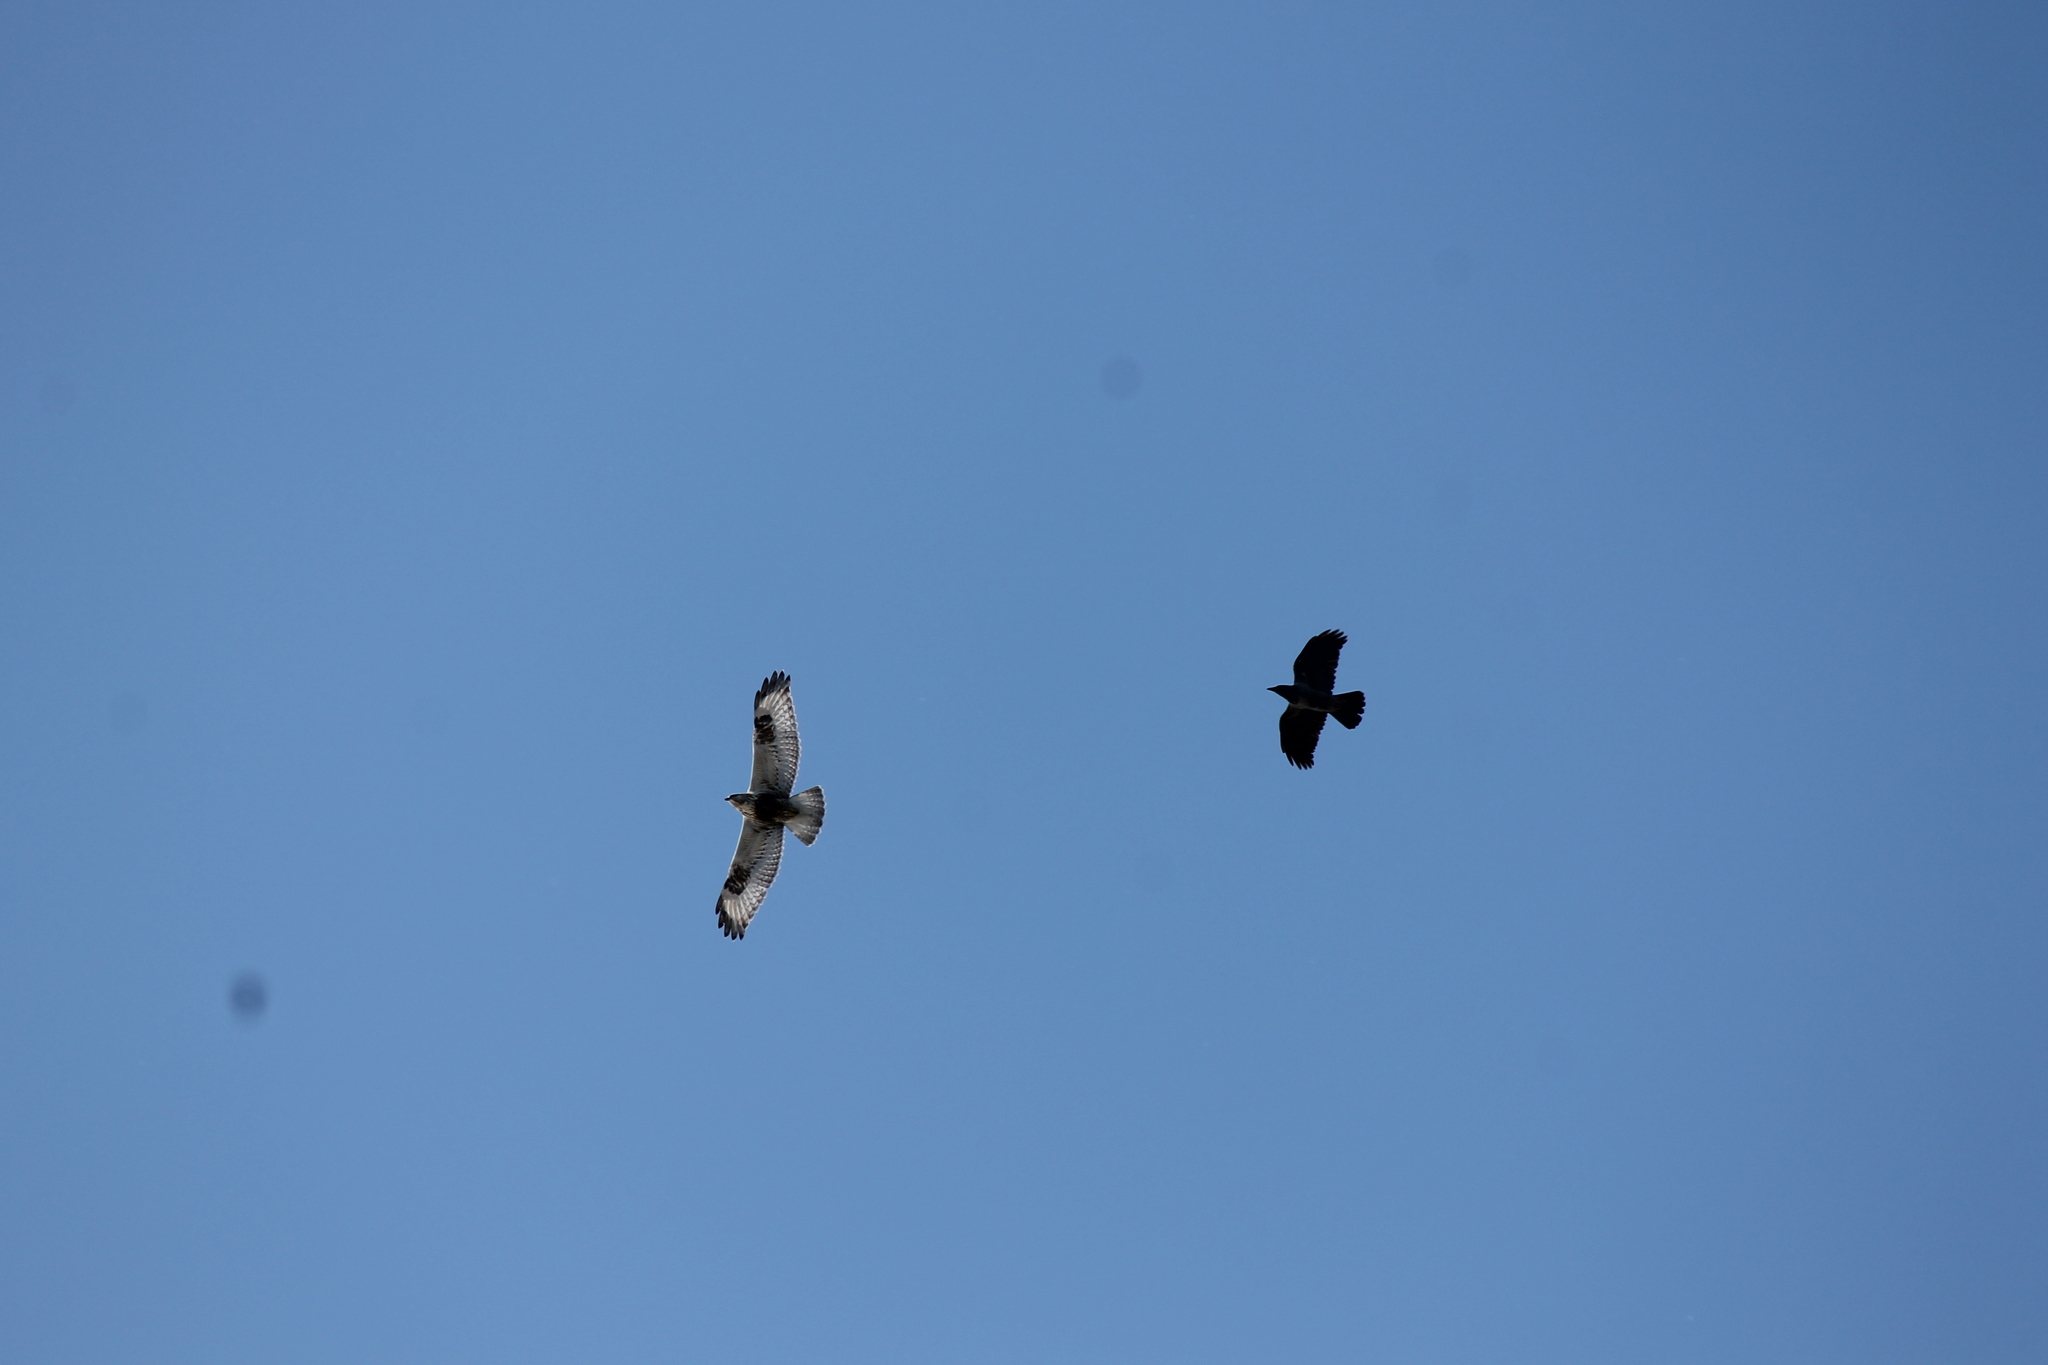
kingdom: Animalia
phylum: Chordata
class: Aves
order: Accipitriformes
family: Accipitridae
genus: Buteo
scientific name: Buteo lagopus
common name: Rough-legged buzzard
